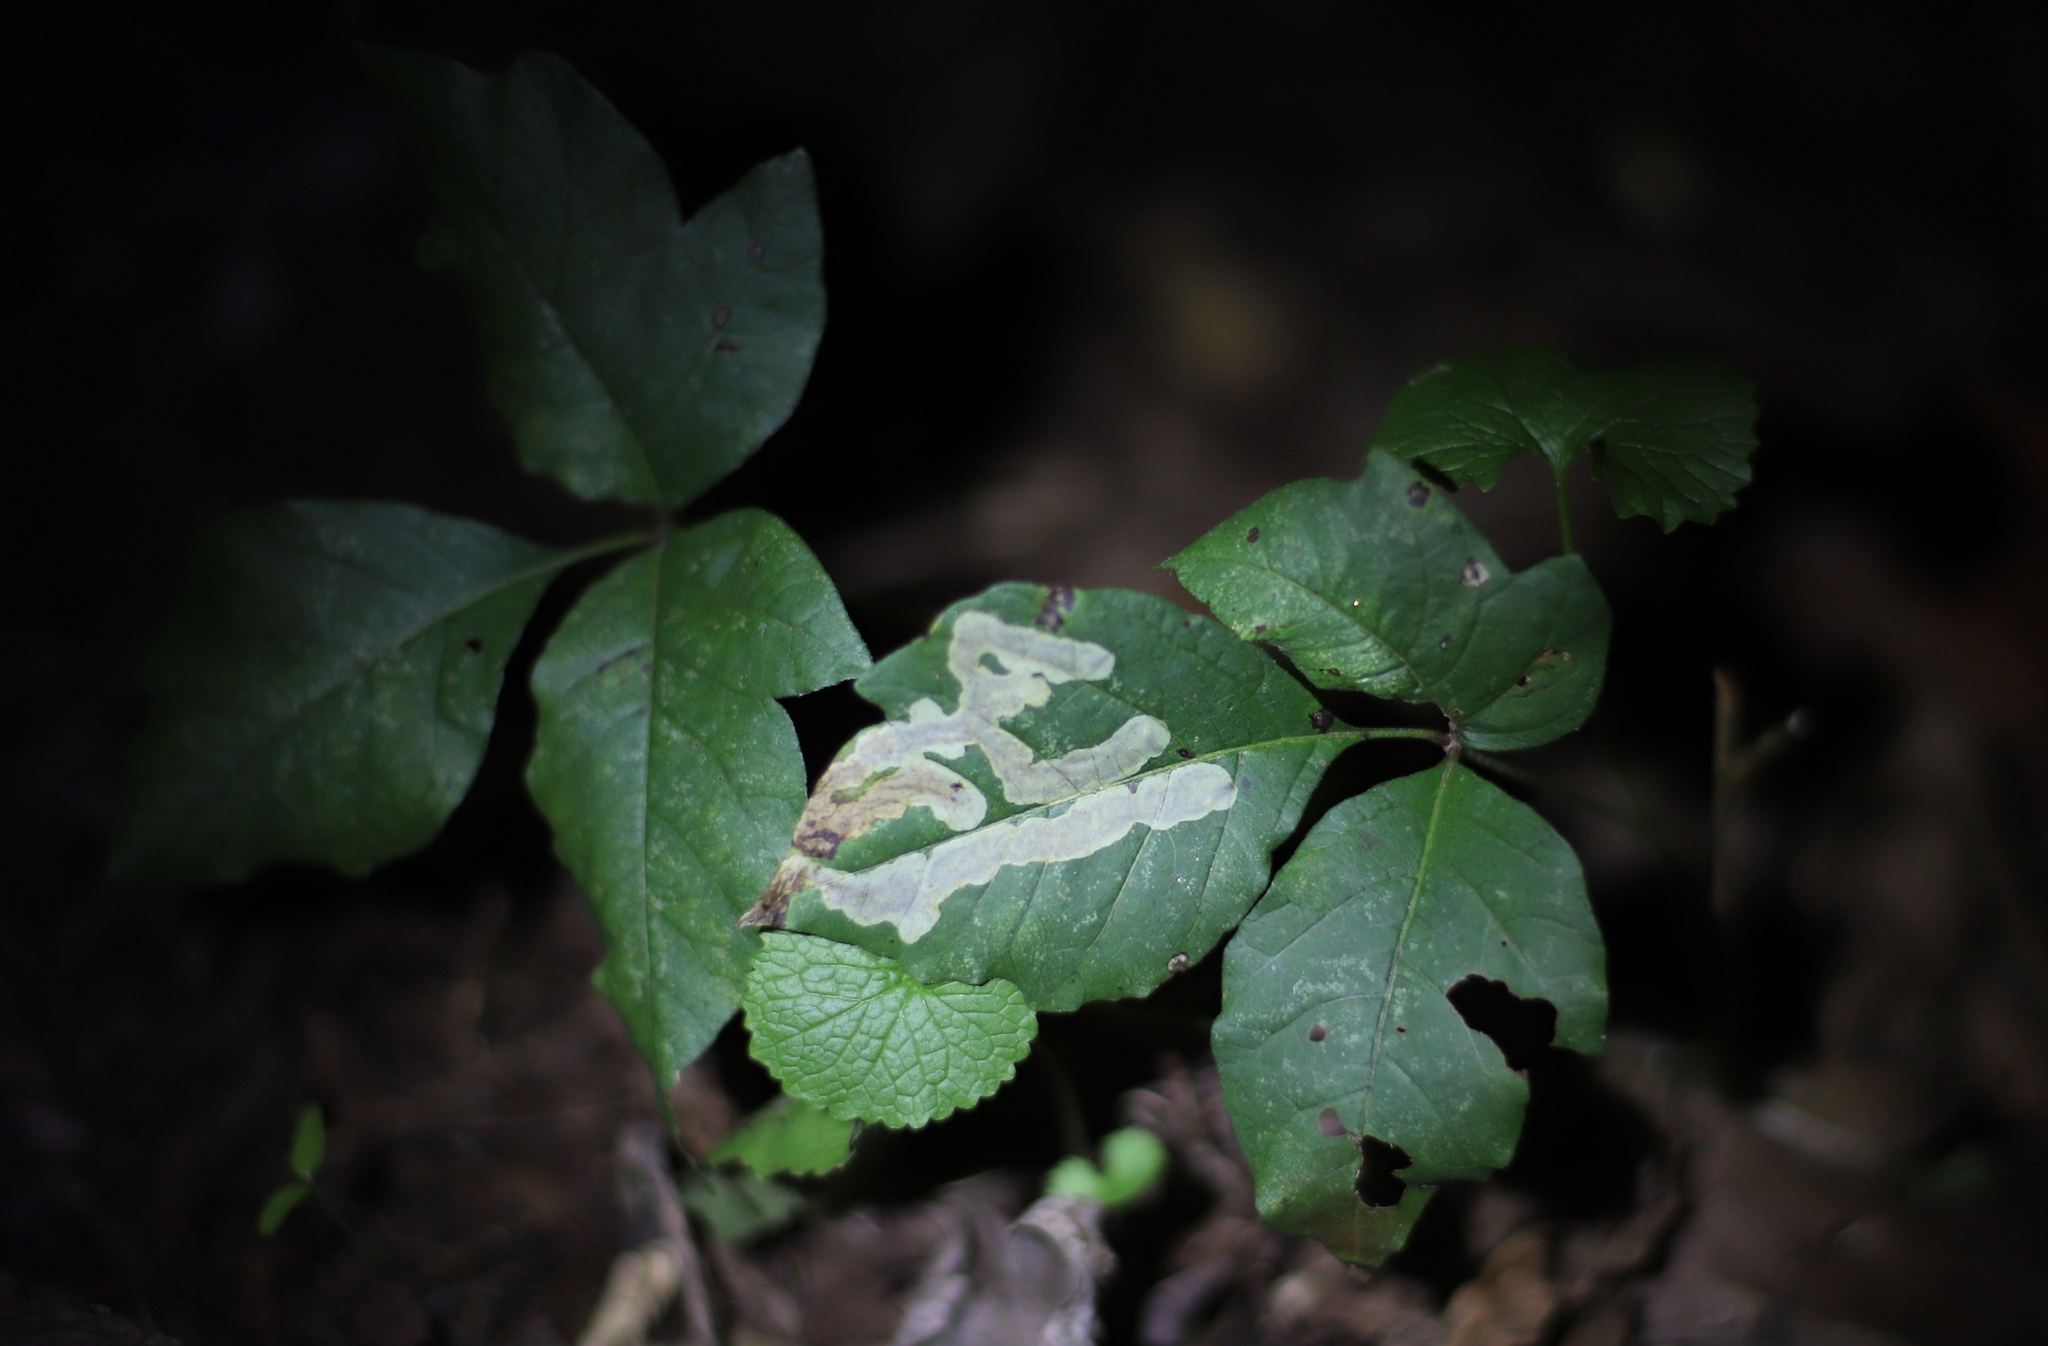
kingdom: Animalia
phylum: Arthropoda
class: Insecta
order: Lepidoptera
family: Gracillariidae
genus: Cameraria
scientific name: Cameraria guttifinitella
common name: Poison ivy leaf-miner moth
